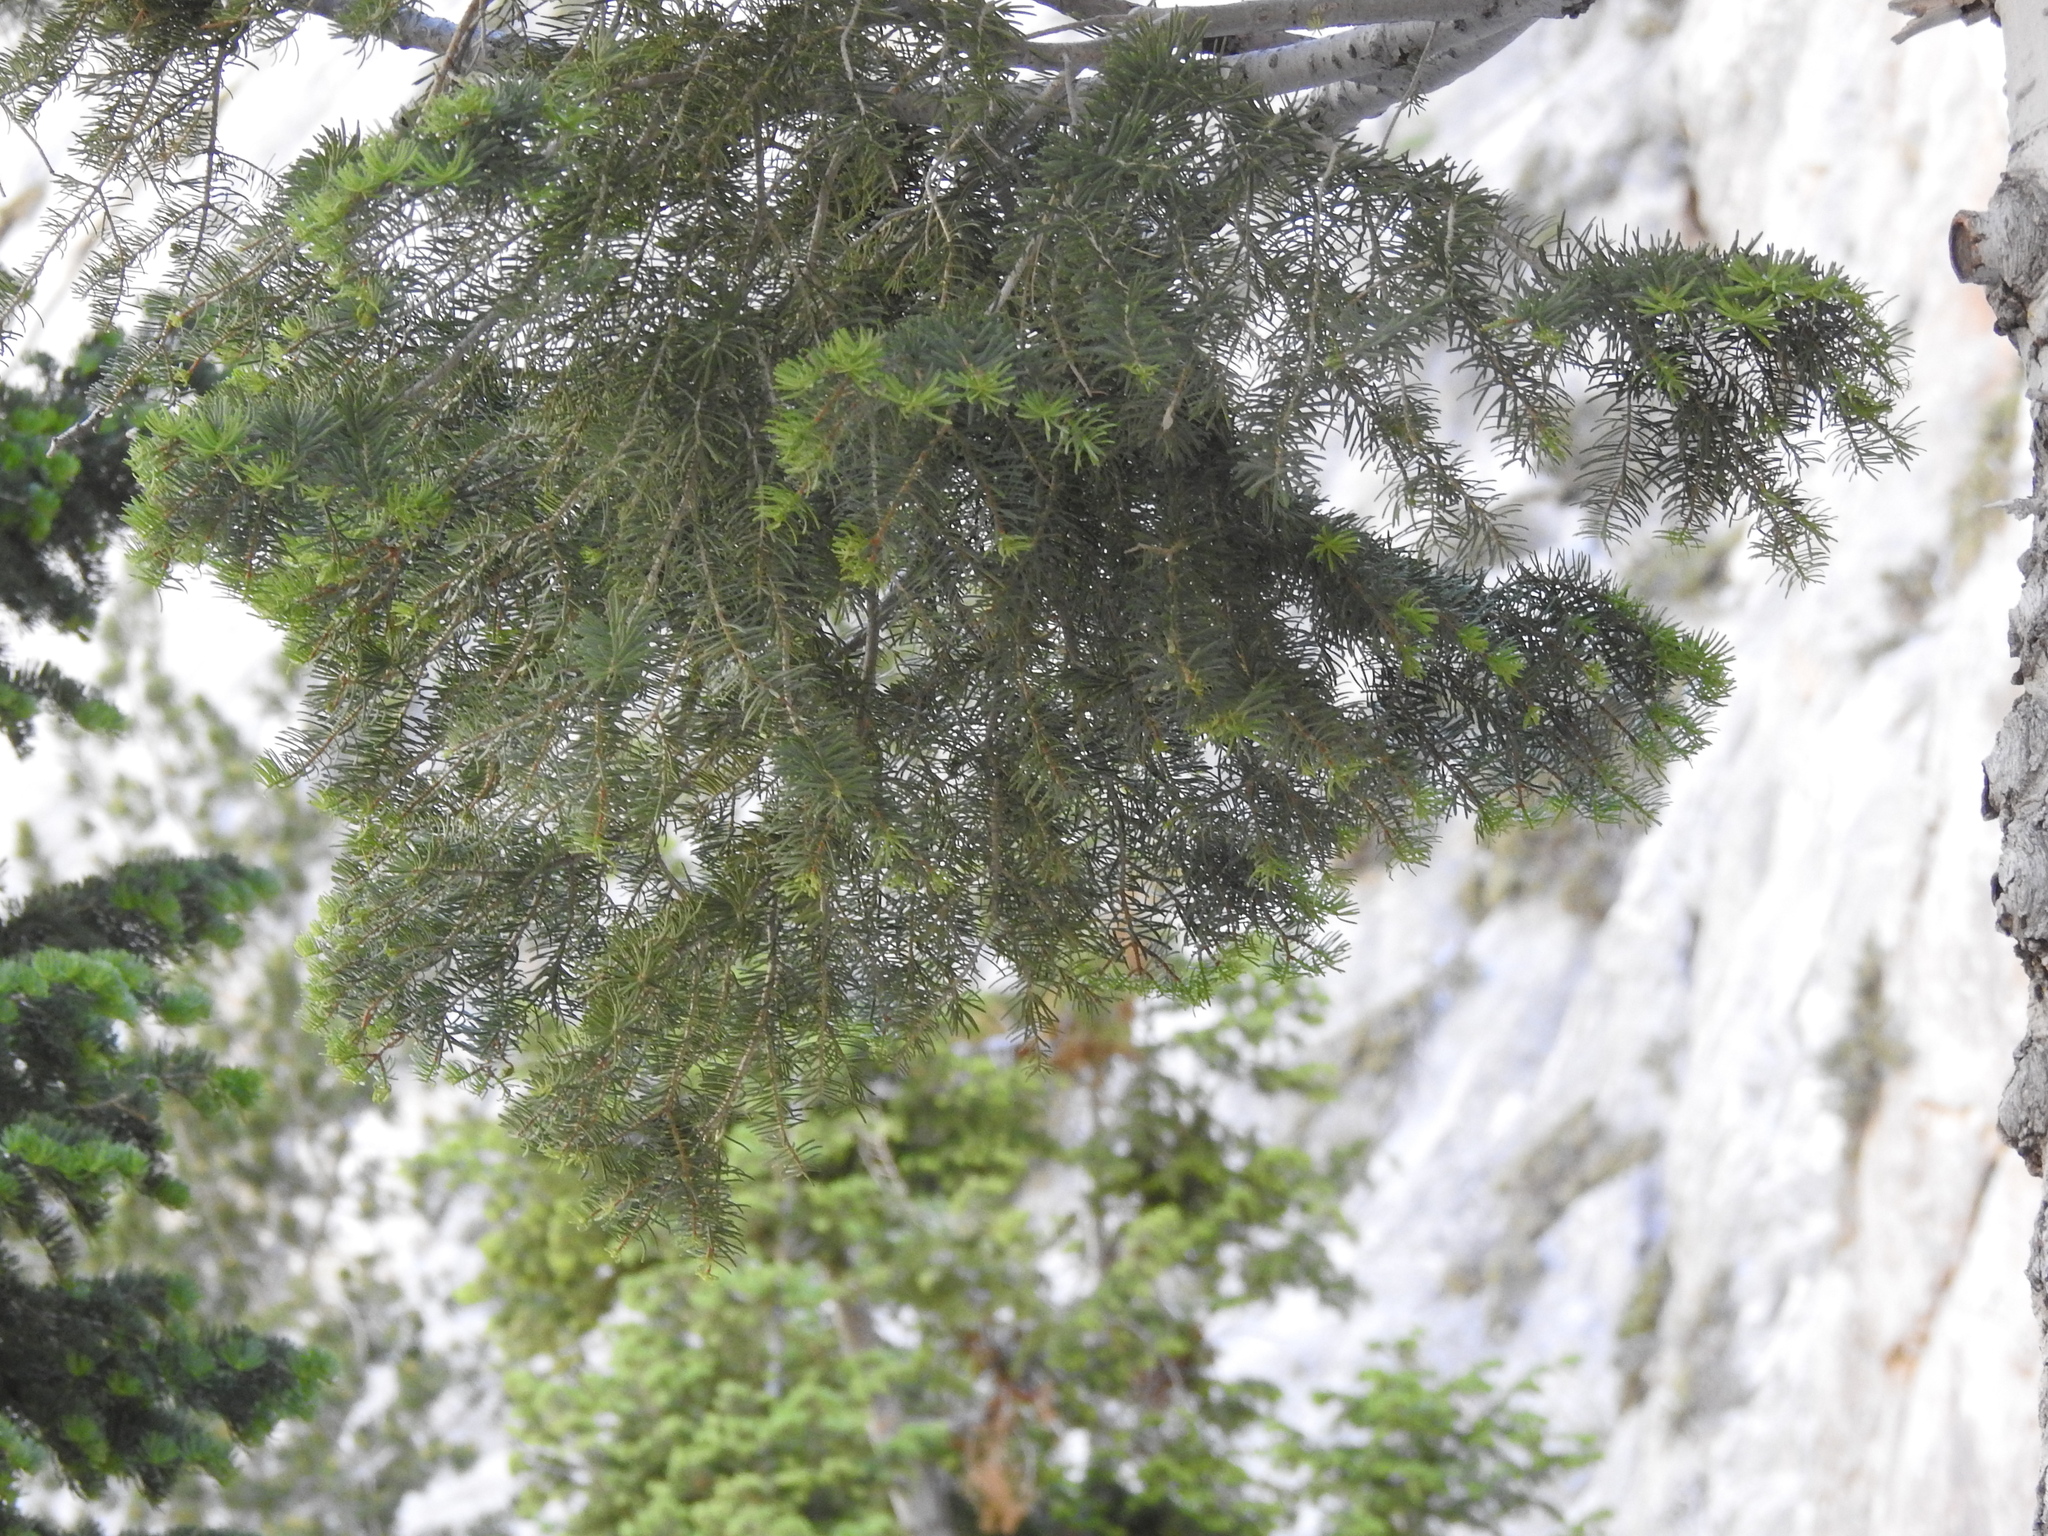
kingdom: Plantae
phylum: Tracheophyta
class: Pinopsida
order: Pinales
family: Pinaceae
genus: Abies
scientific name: Abies concolor
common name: Colorado fir
